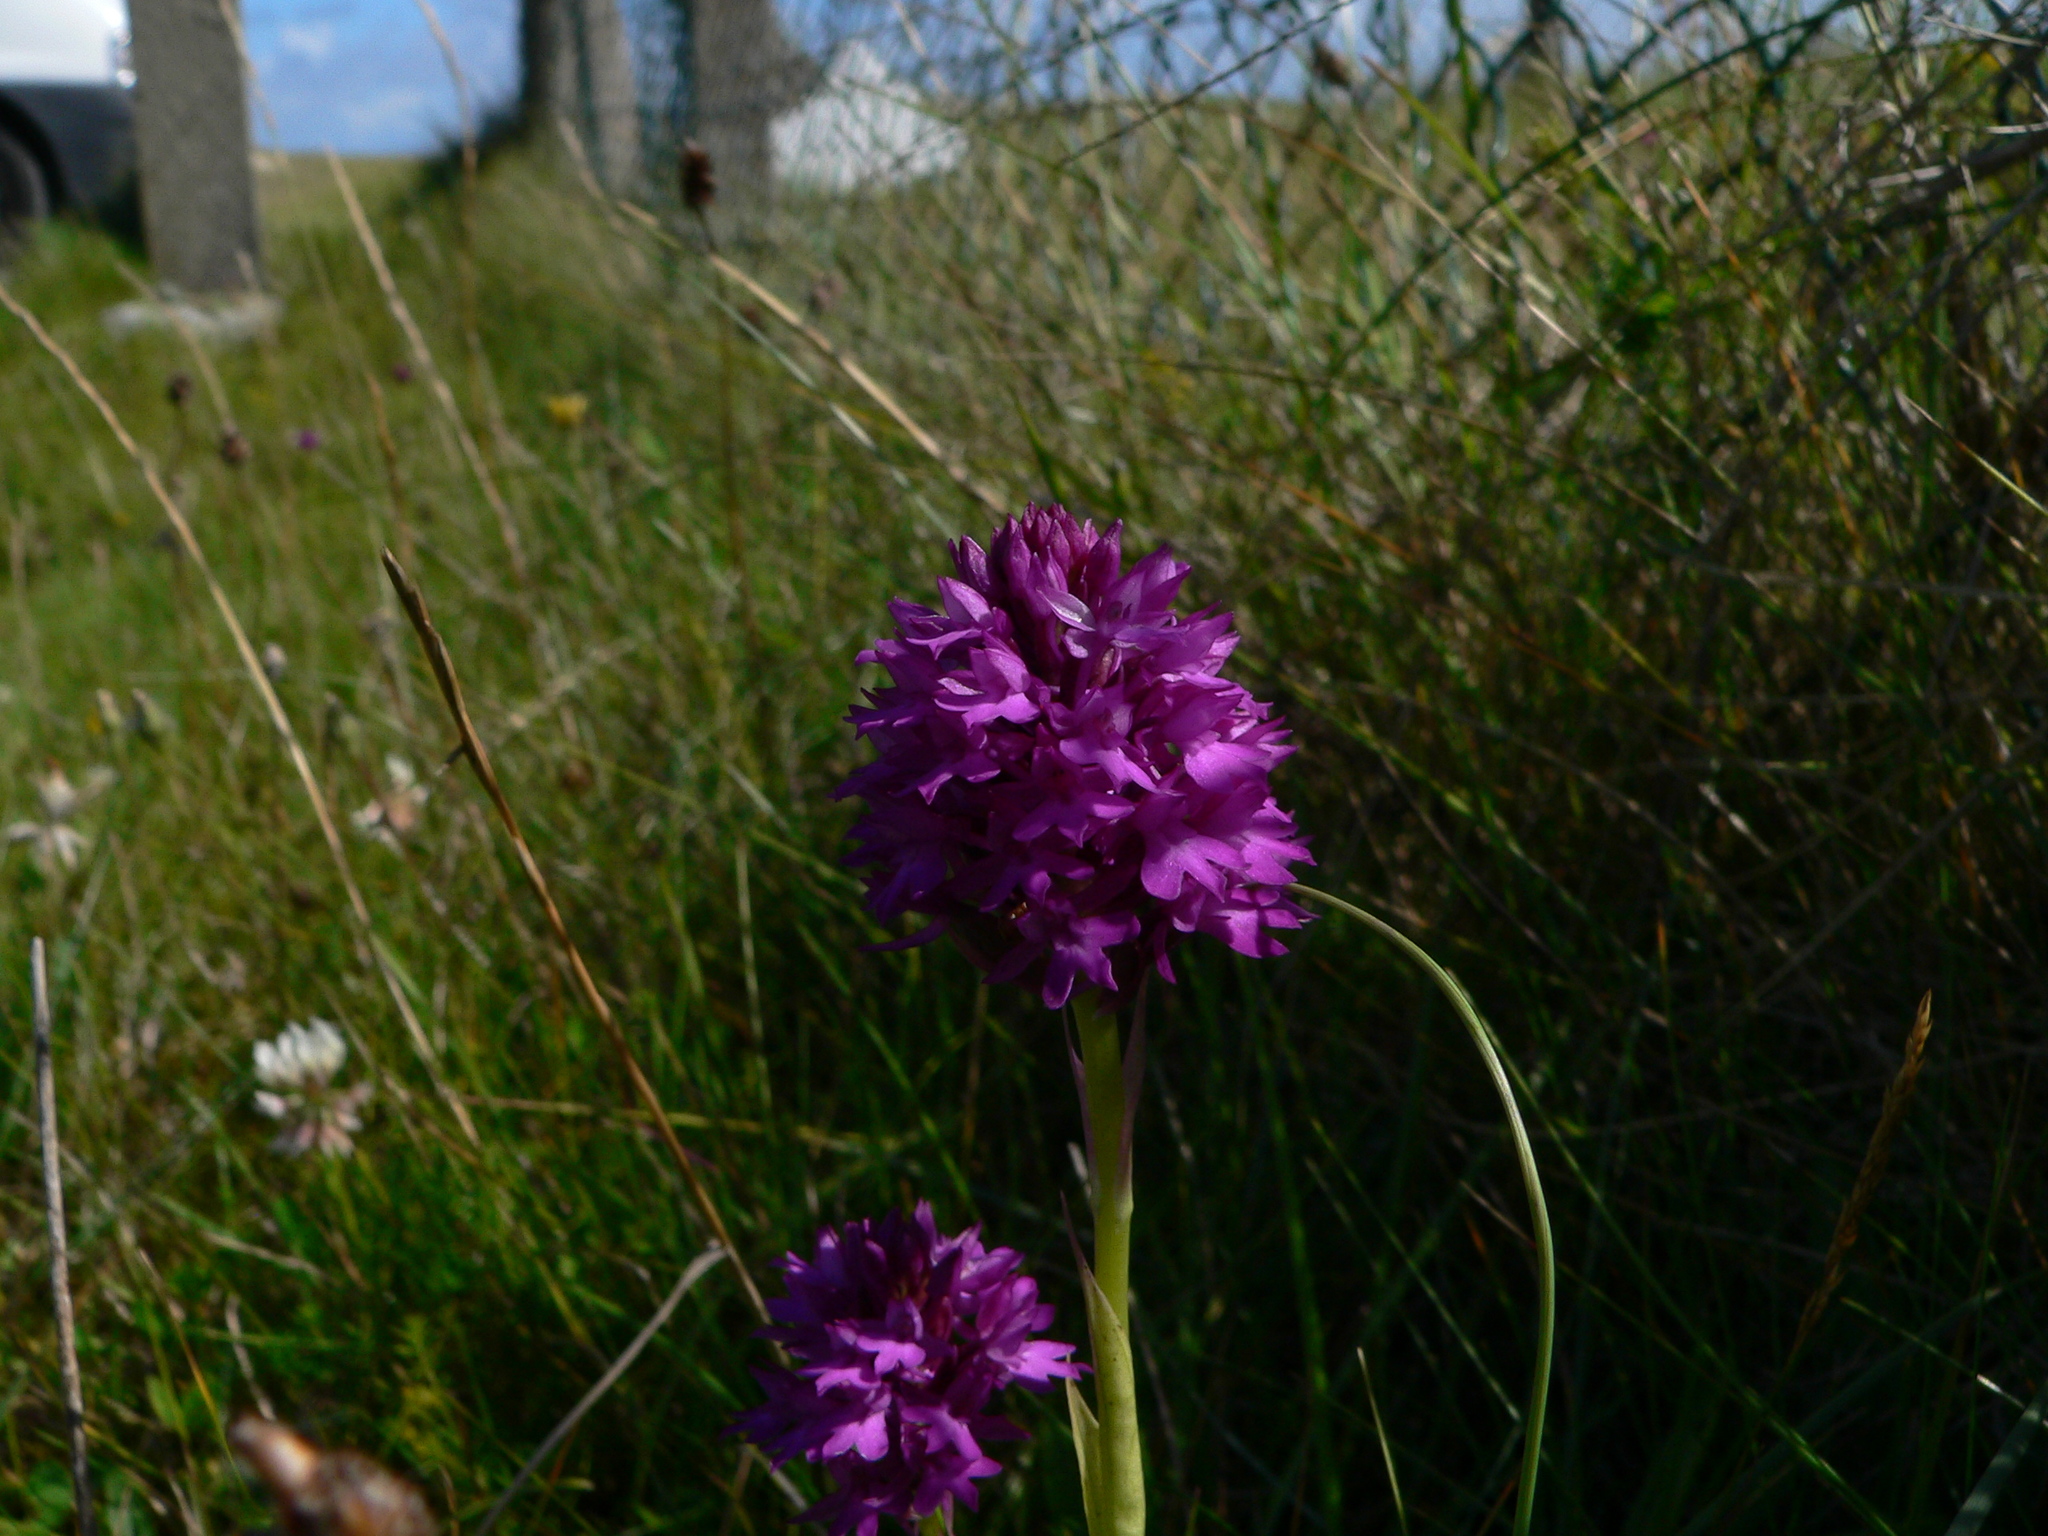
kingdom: Plantae
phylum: Tracheophyta
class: Liliopsida
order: Asparagales
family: Orchidaceae
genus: Anacamptis
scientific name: Anacamptis pyramidalis
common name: Pyramidal orchid
